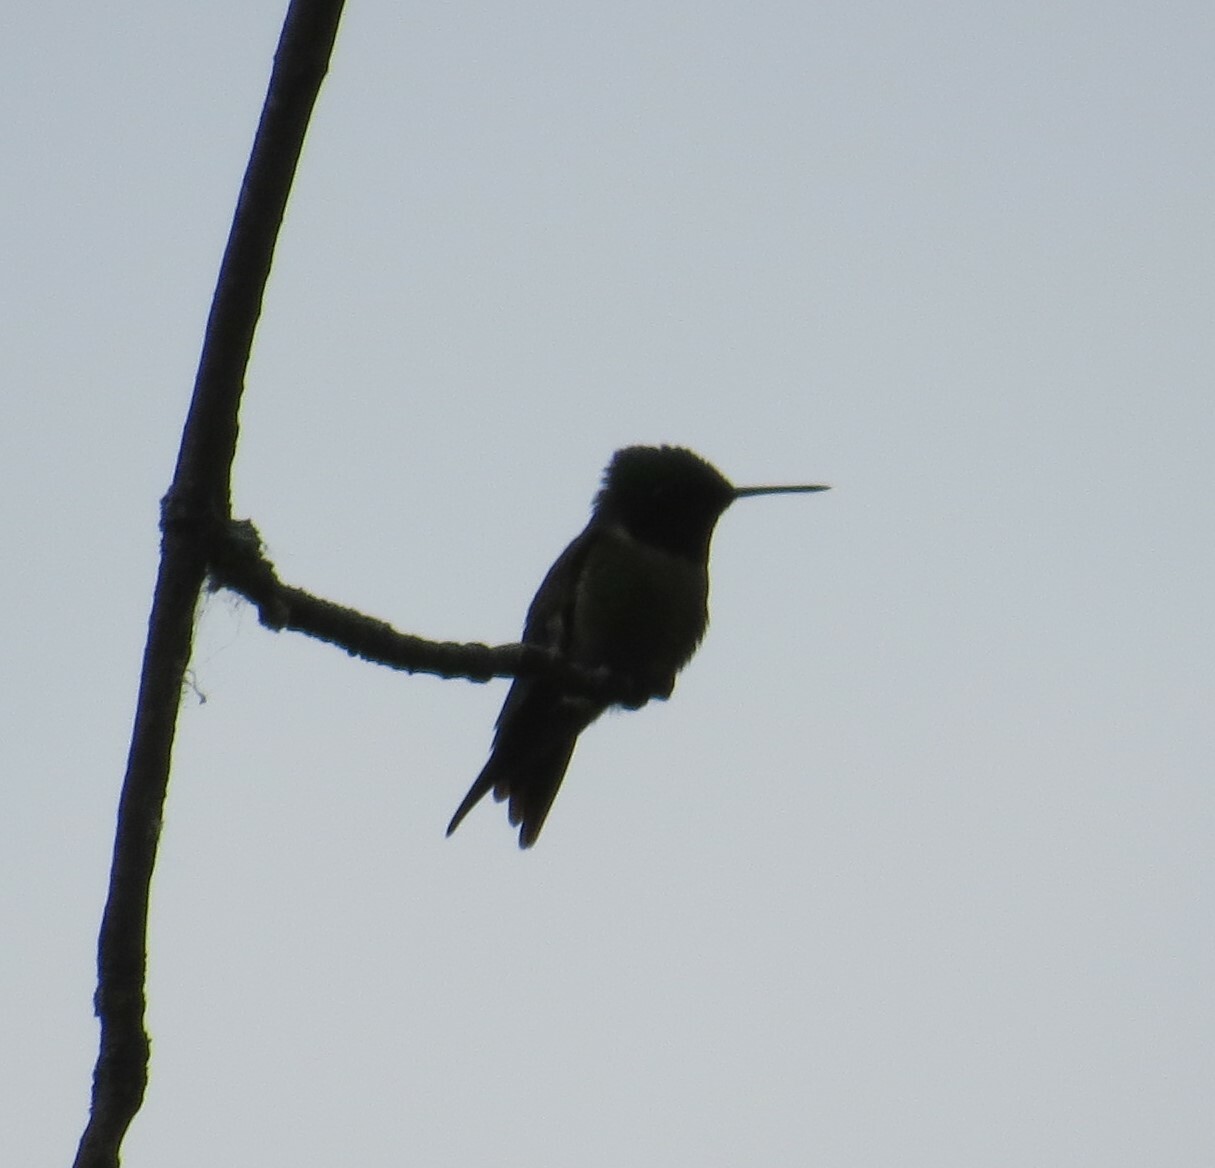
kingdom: Animalia
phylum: Chordata
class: Aves
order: Apodiformes
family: Trochilidae
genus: Archilochus
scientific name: Archilochus colubris
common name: Ruby-throated hummingbird
